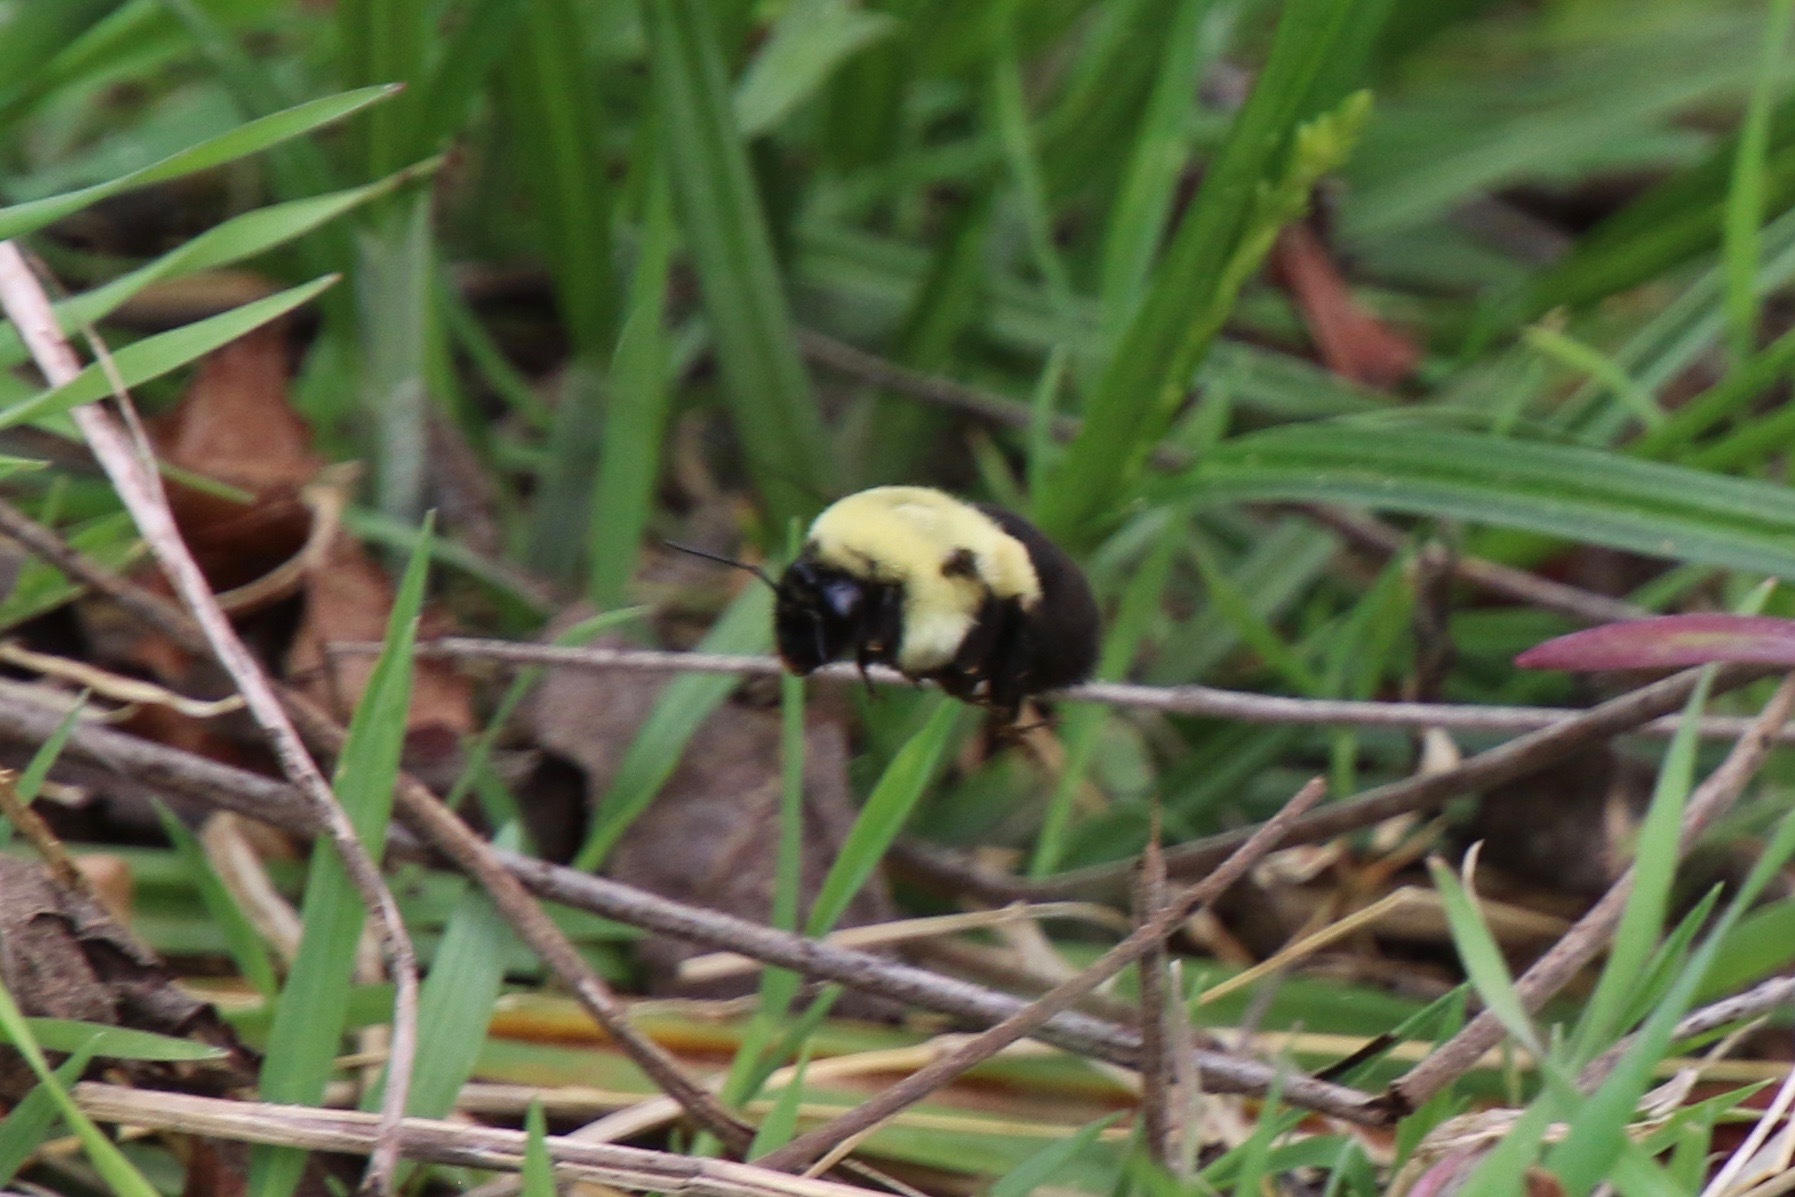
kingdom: Animalia
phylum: Arthropoda
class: Insecta
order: Hymenoptera
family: Apidae
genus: Bombus
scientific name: Bombus impatiens
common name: Common eastern bumble bee
